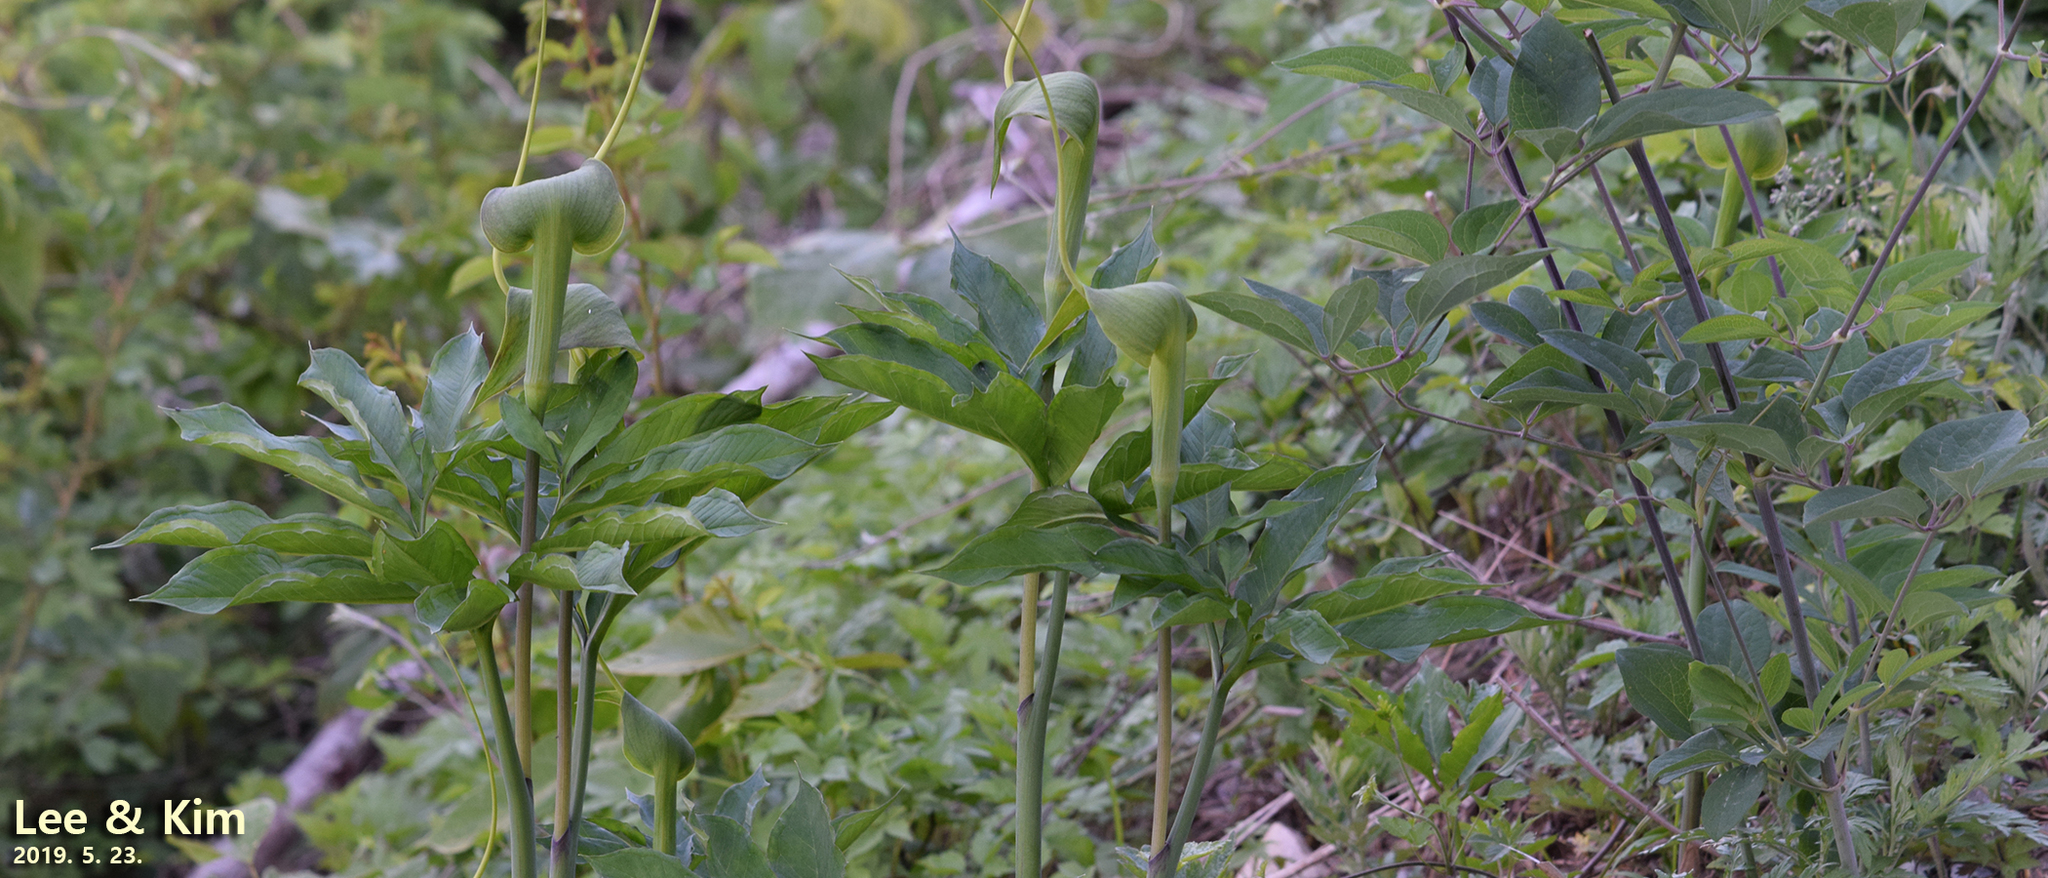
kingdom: Plantae
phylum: Tracheophyta
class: Liliopsida
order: Alismatales
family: Araceae
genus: Arisaema
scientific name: Arisaema heterophyllum
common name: Dancing crane cobra lily
